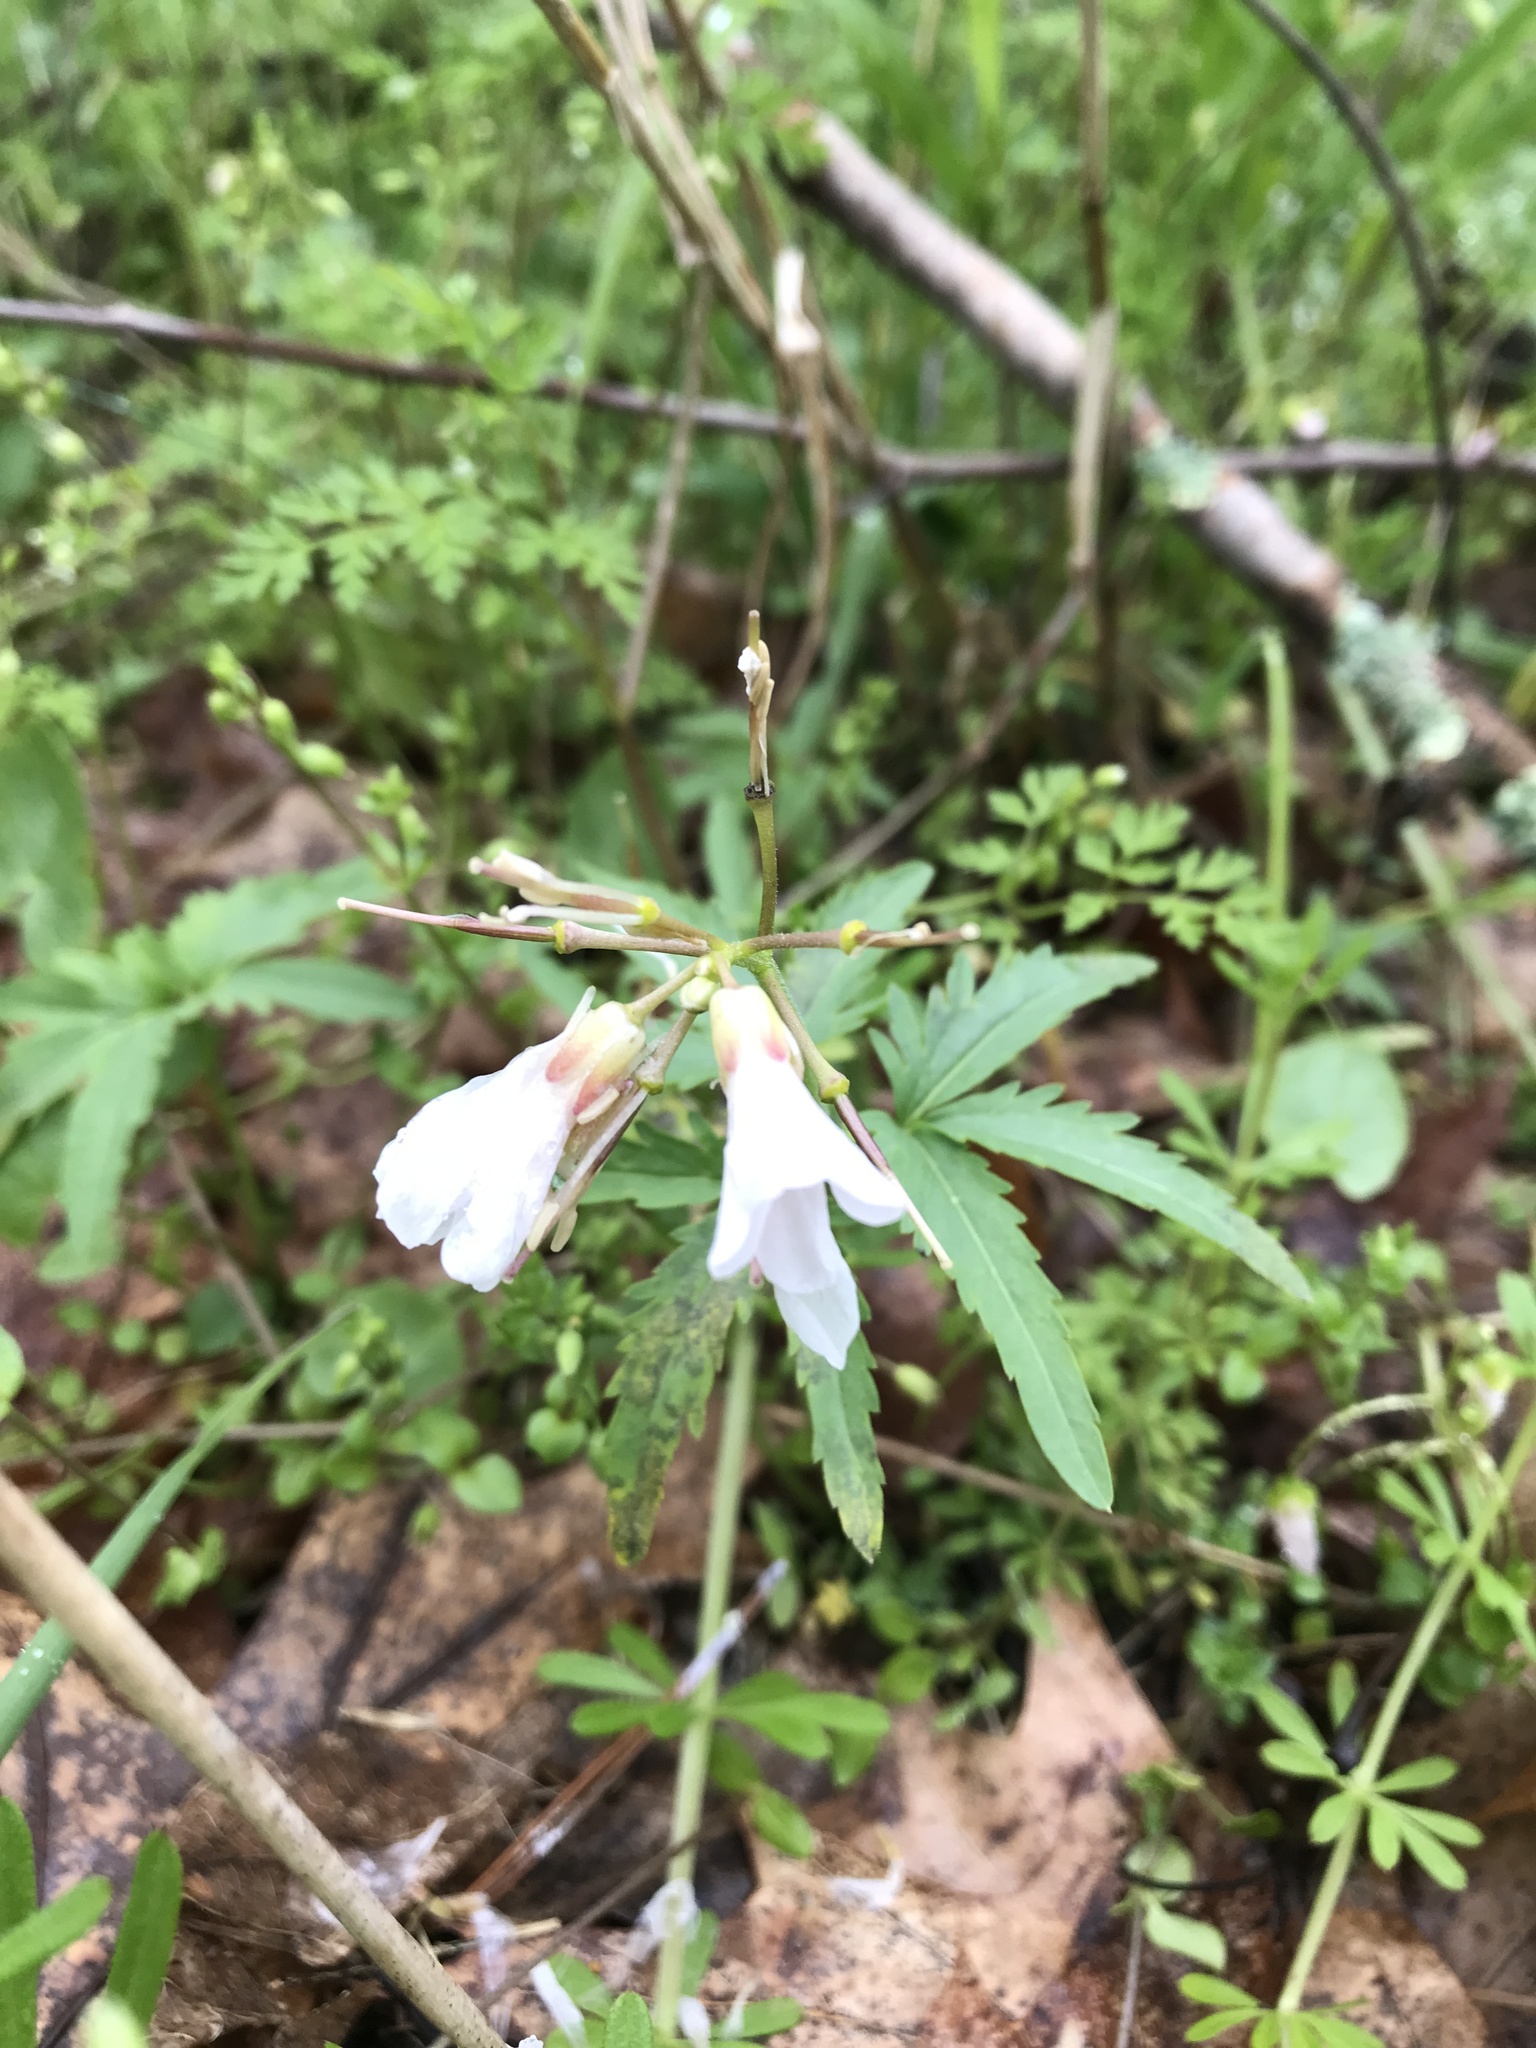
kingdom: Plantae
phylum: Tracheophyta
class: Magnoliopsida
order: Brassicales
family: Brassicaceae
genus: Cardamine
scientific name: Cardamine concatenata
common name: Cut-leaf toothcup
